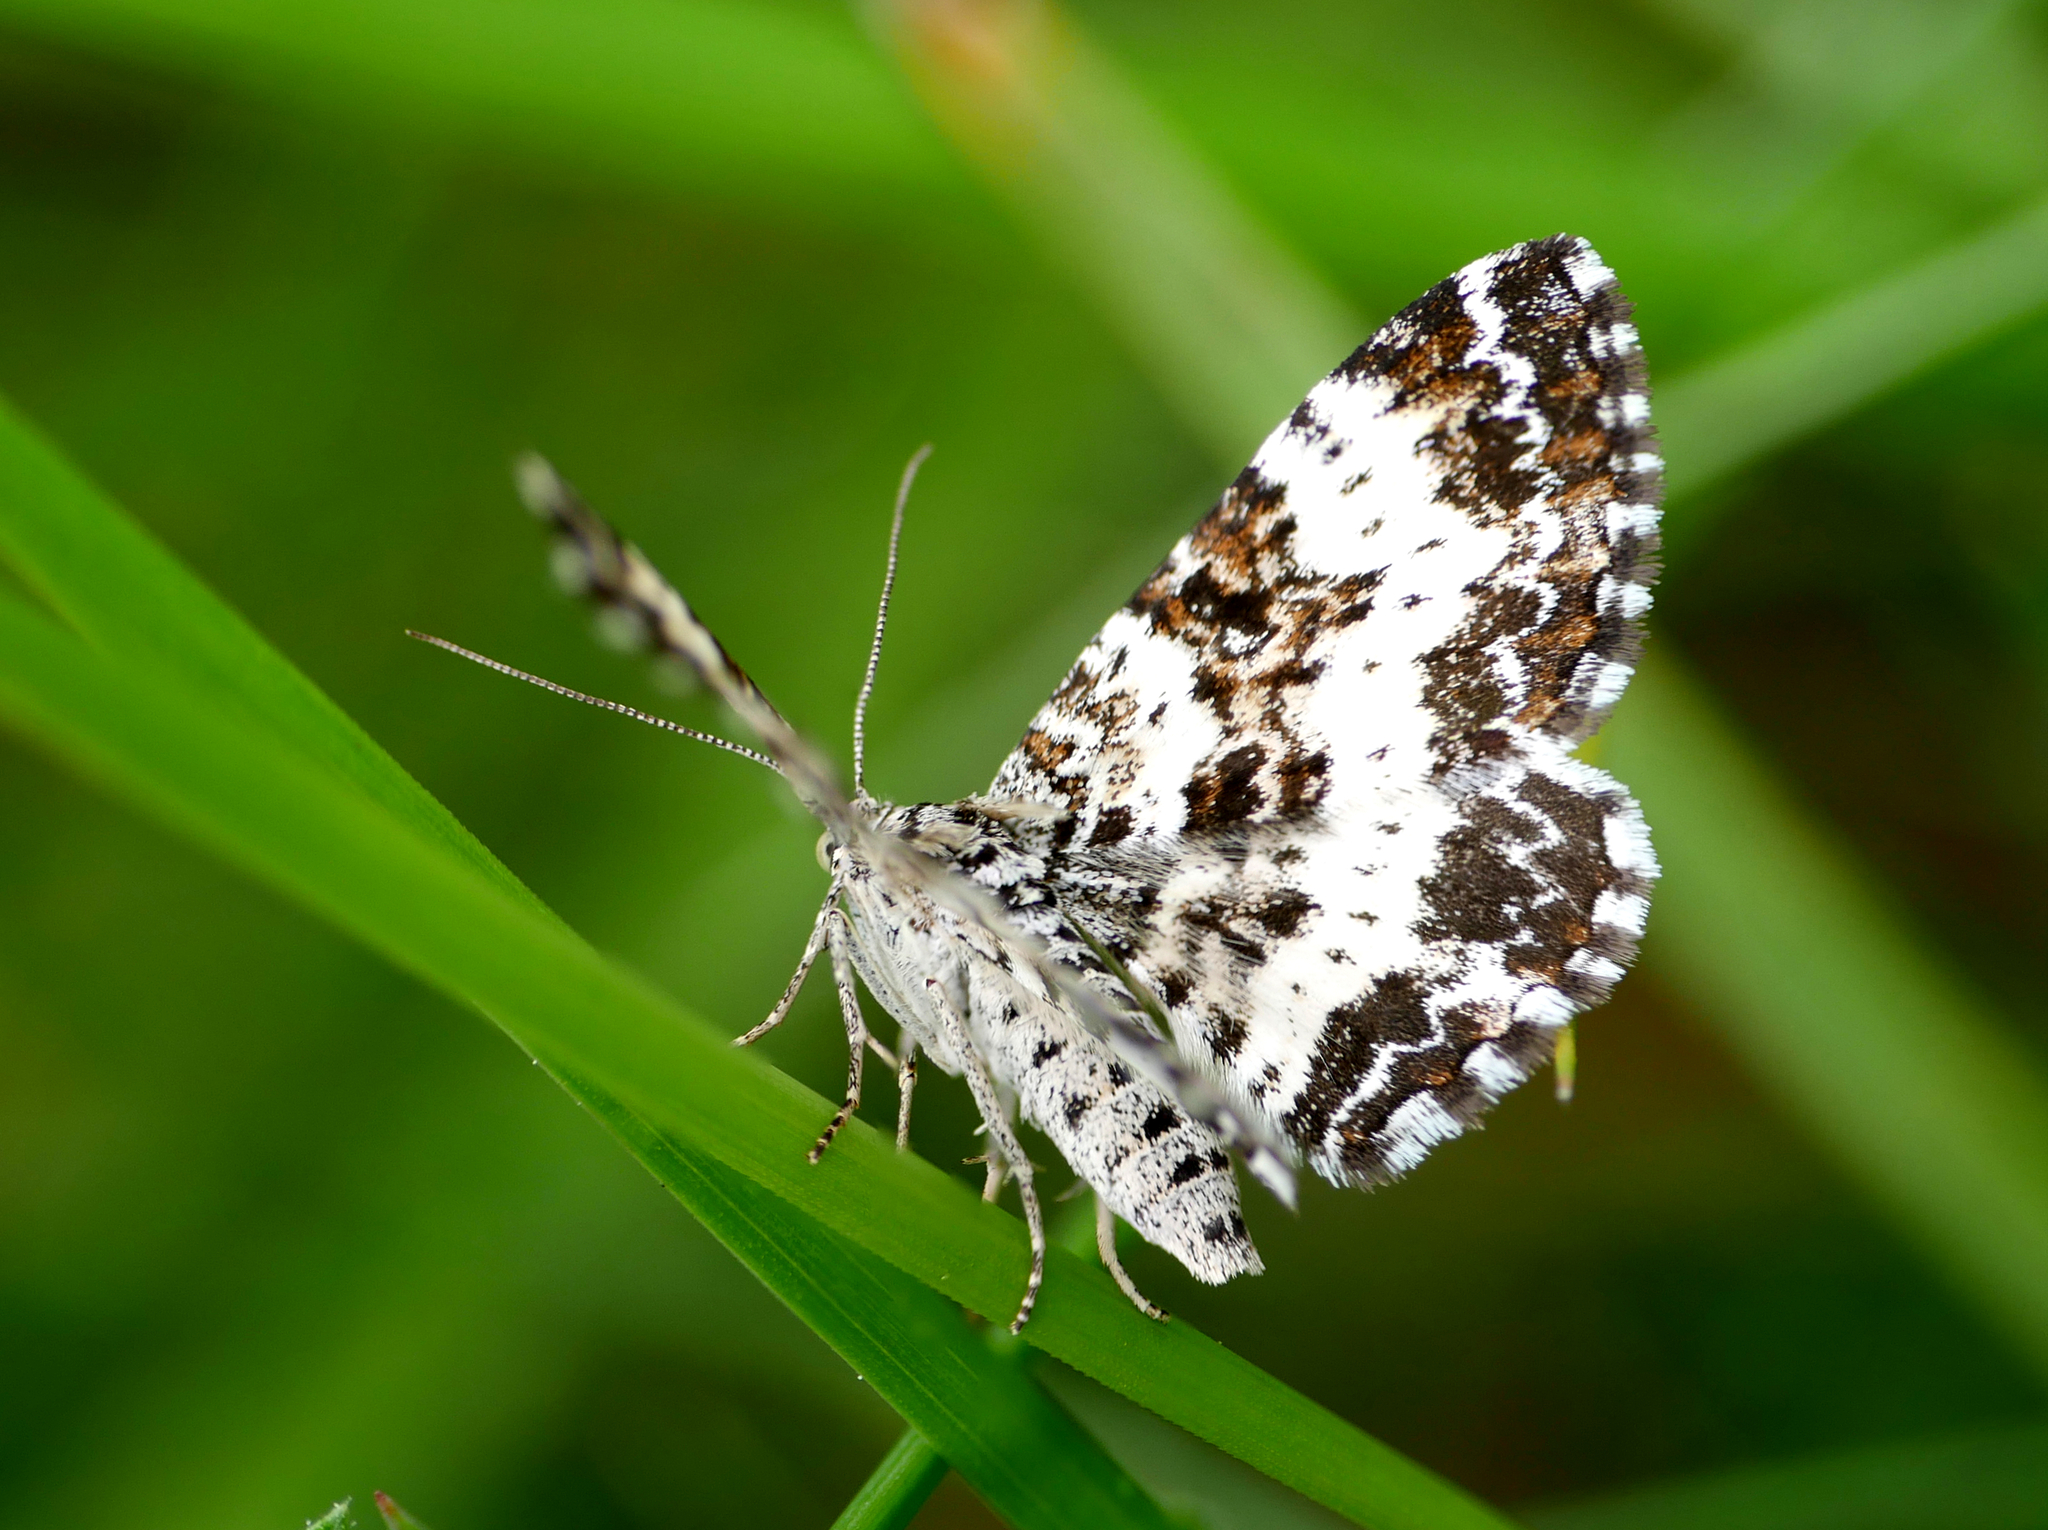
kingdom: Animalia
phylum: Arthropoda
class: Insecta
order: Lepidoptera
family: Geometridae
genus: Epirrhoe
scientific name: Epirrhoe tristata
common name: Small argent & sable
